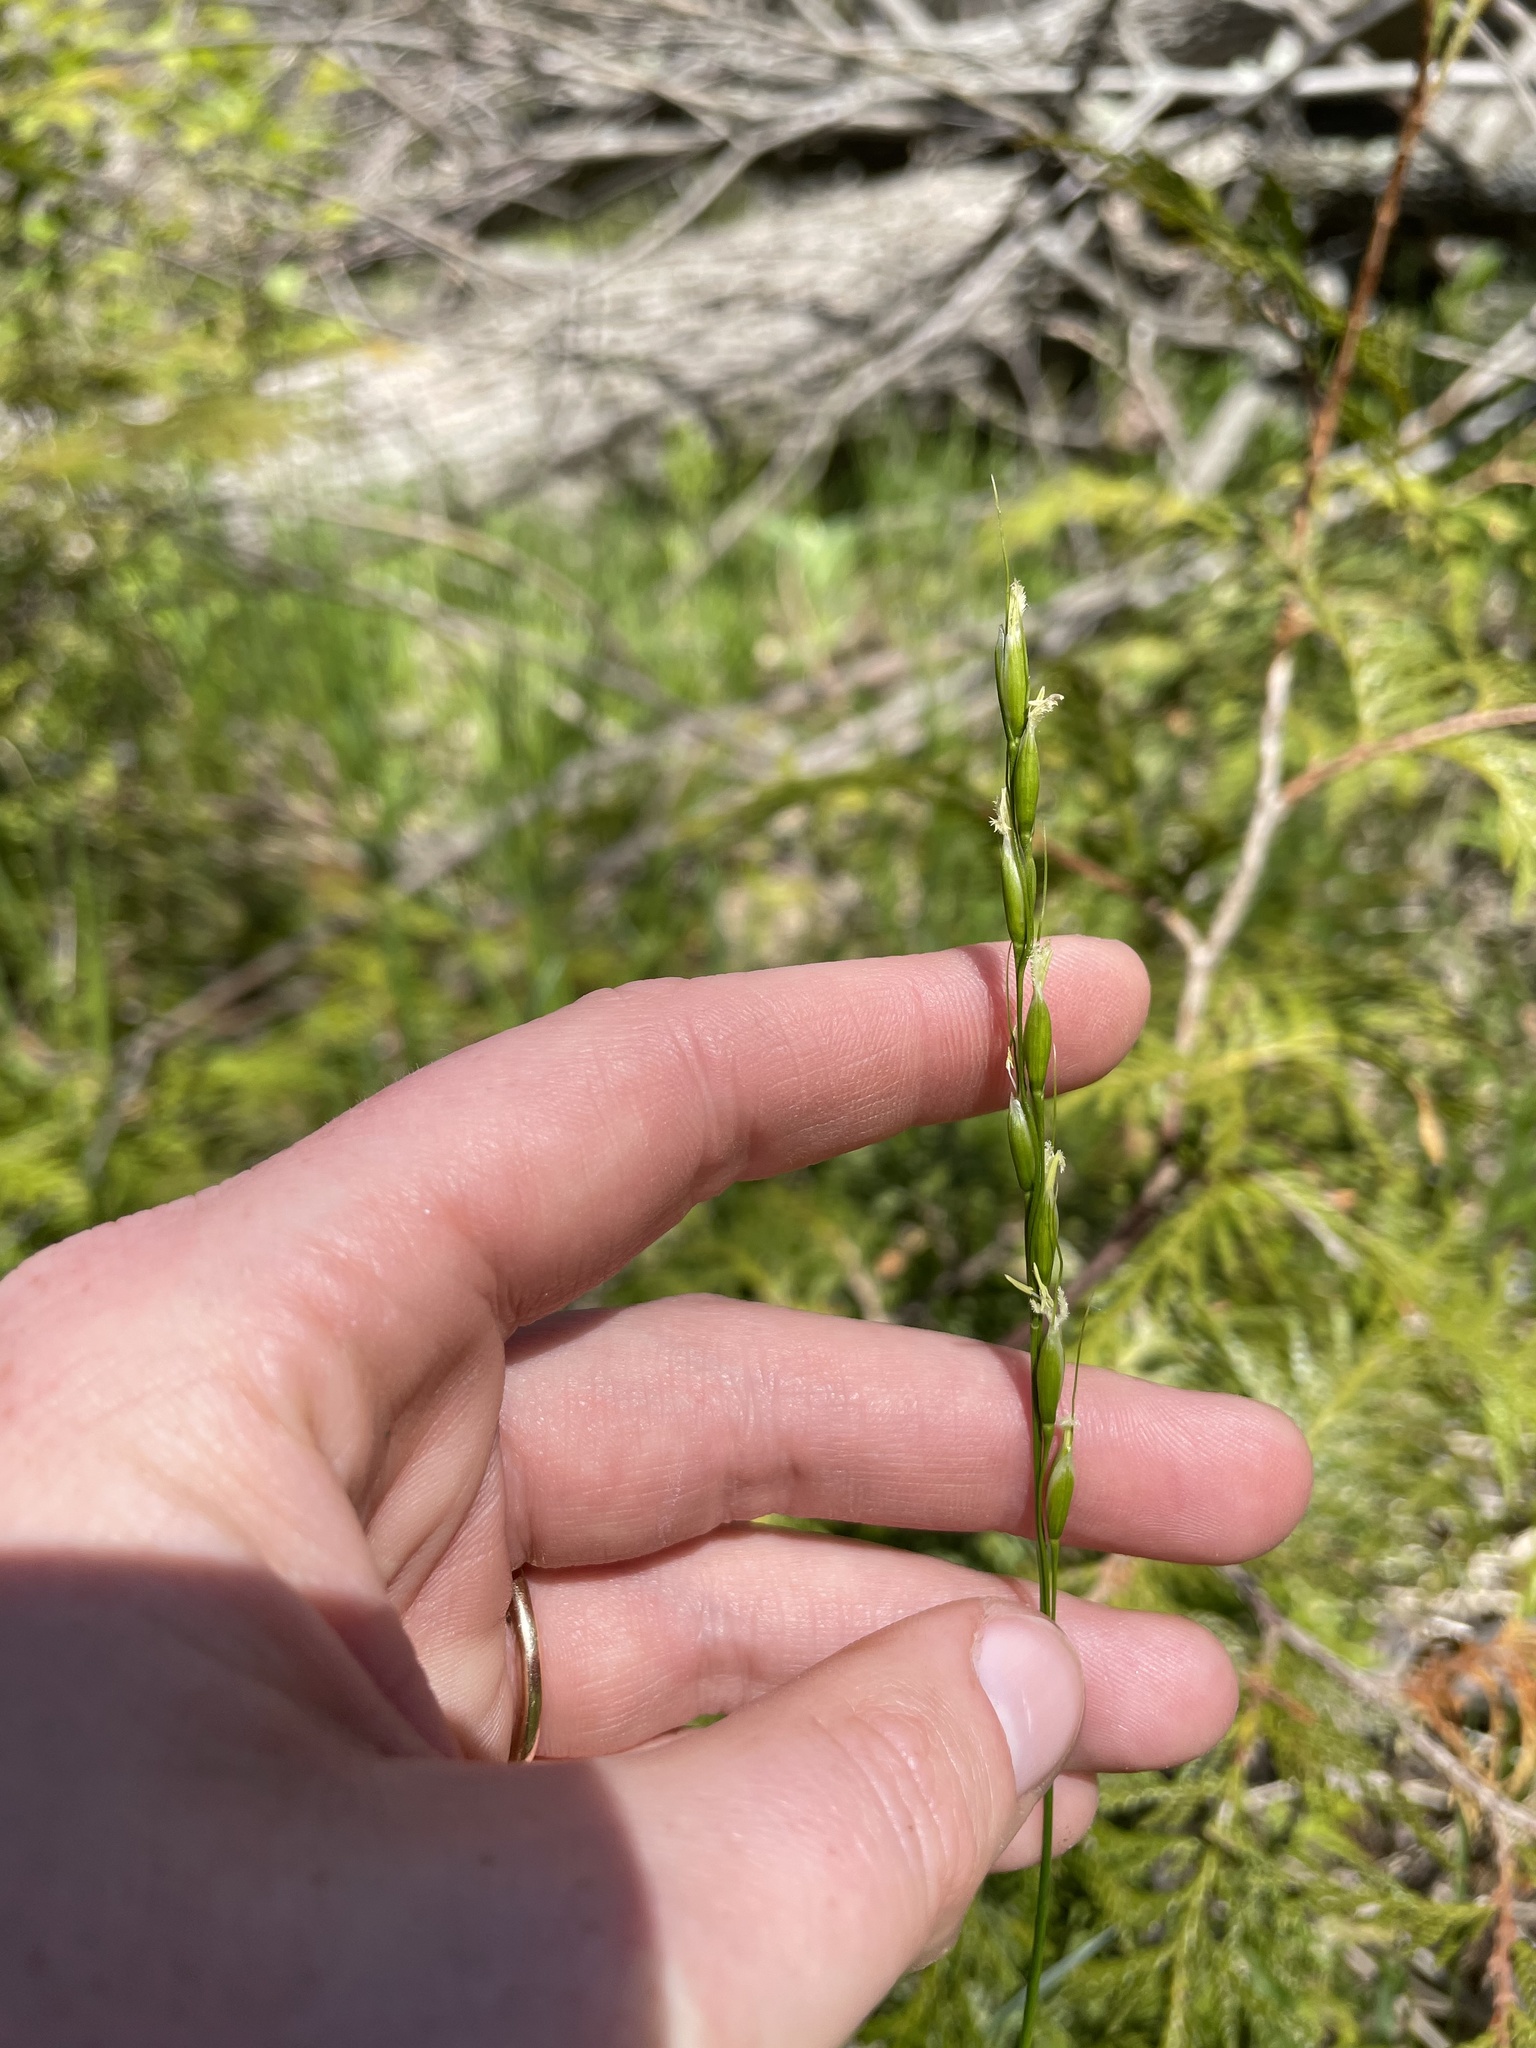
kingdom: Plantae
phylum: Tracheophyta
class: Liliopsida
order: Poales
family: Poaceae
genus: Oryzopsis
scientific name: Oryzopsis asperifolia
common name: Rough-leaved mountain rice
